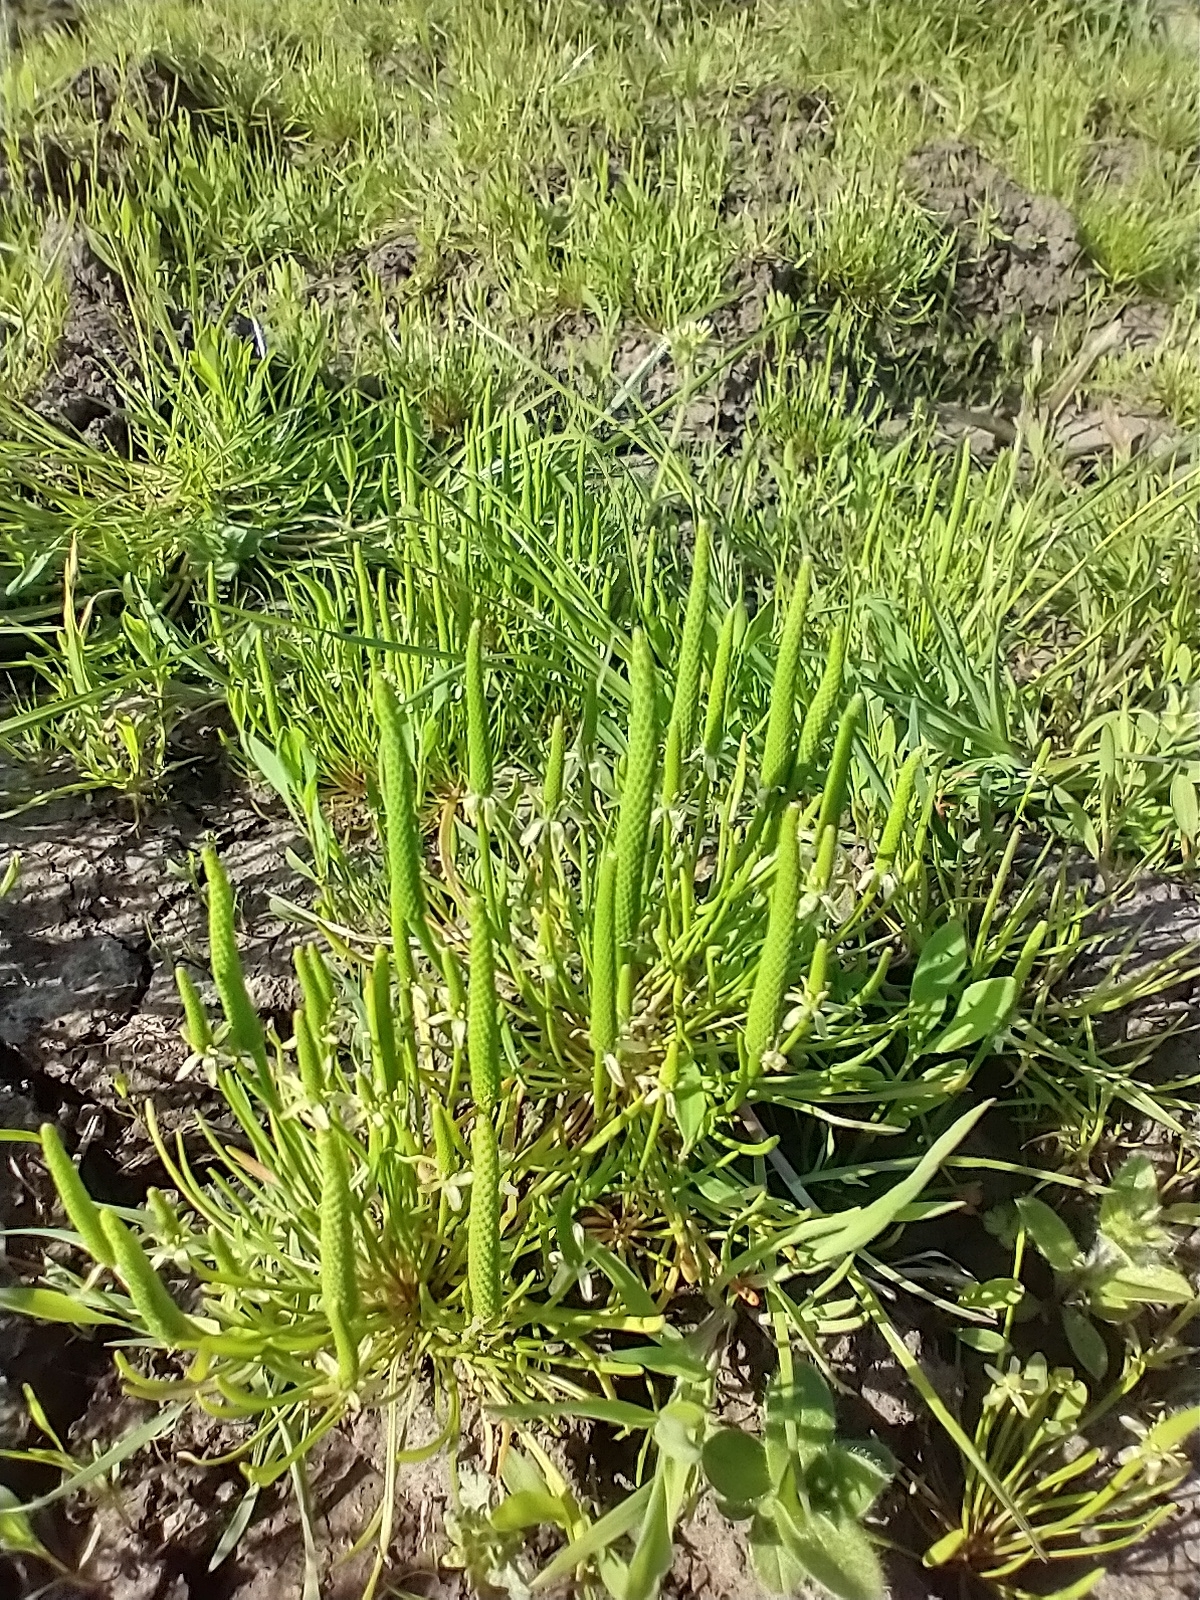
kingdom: Plantae
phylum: Tracheophyta
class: Magnoliopsida
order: Ranunculales
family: Ranunculaceae
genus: Myosurus
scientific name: Myosurus minimus
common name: Mousetail
